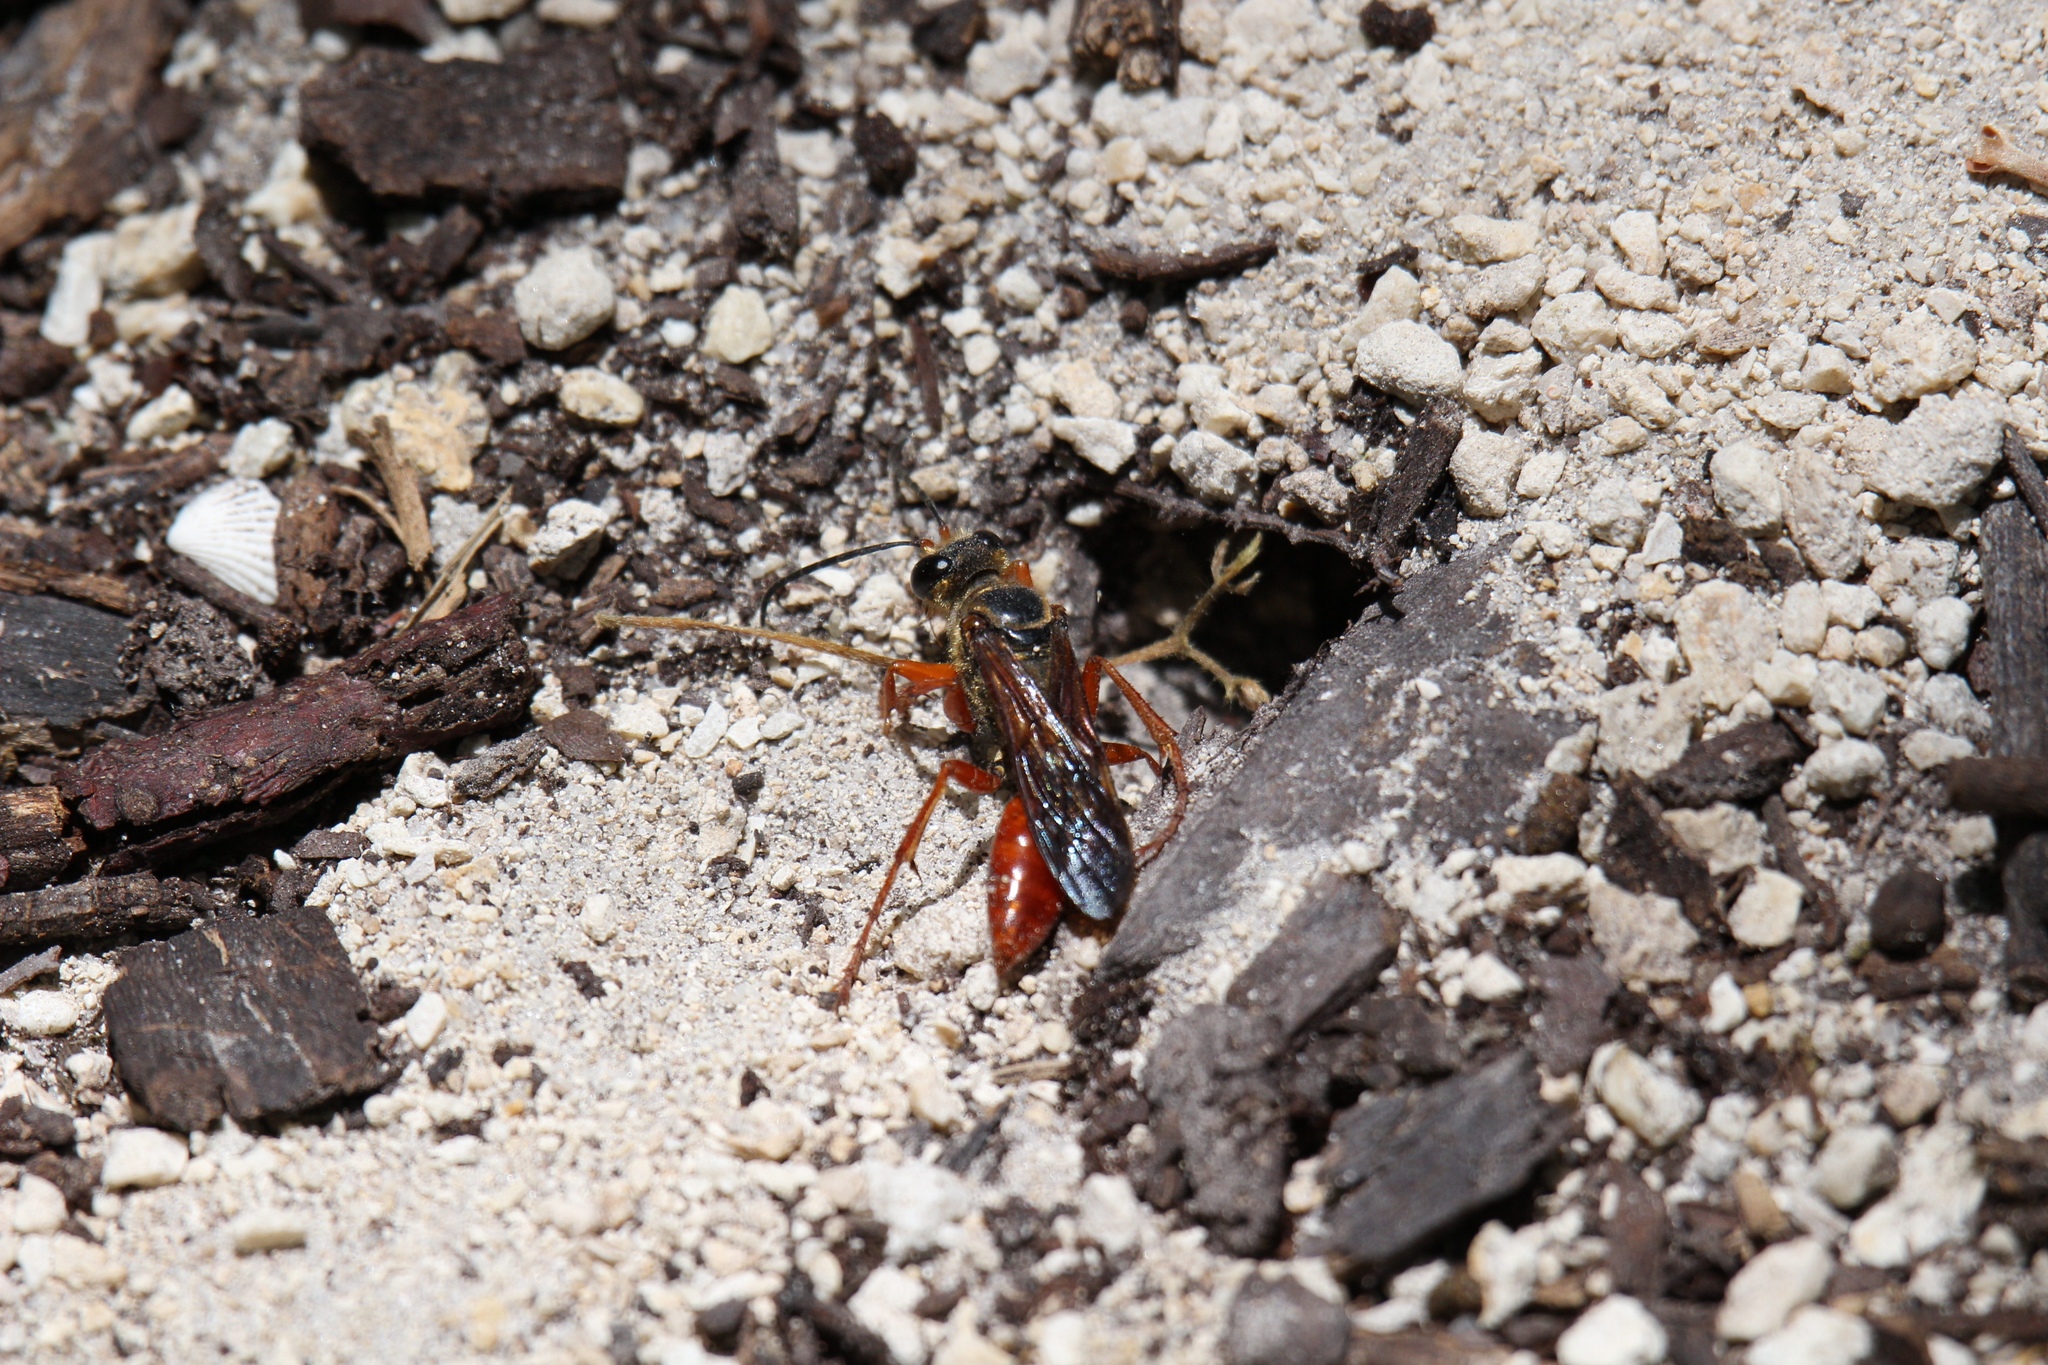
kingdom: Animalia
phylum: Arthropoda
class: Insecta
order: Hymenoptera
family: Sphecidae
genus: Sphex
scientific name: Sphex jamaicensis
